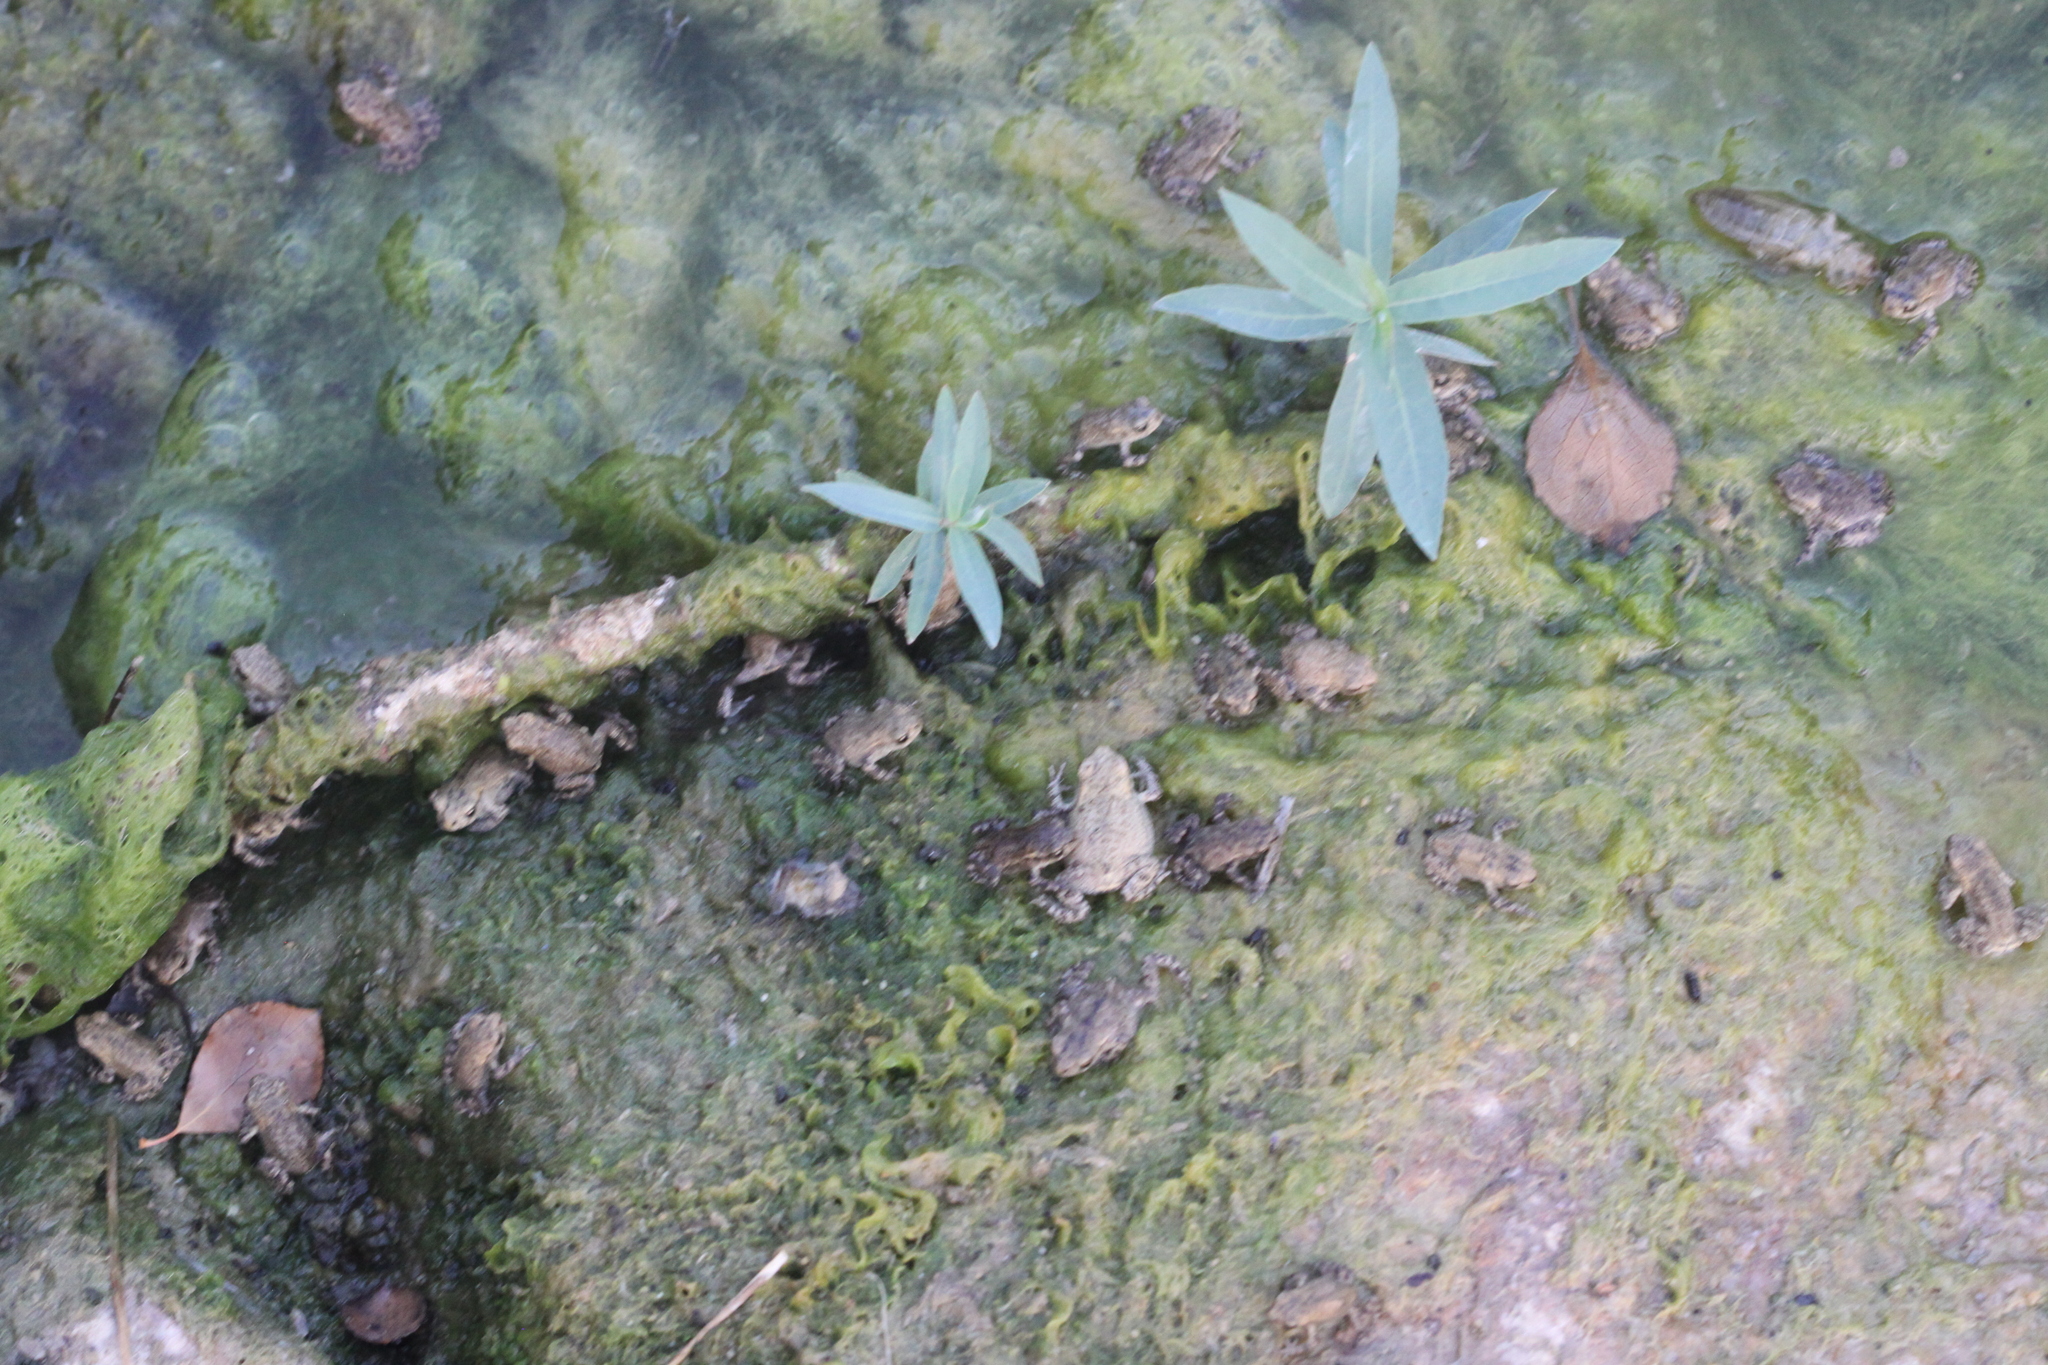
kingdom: Animalia
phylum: Chordata
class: Amphibia
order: Anura
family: Bufonidae
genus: Bufo
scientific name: Bufo spinosus
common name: Western common toad
